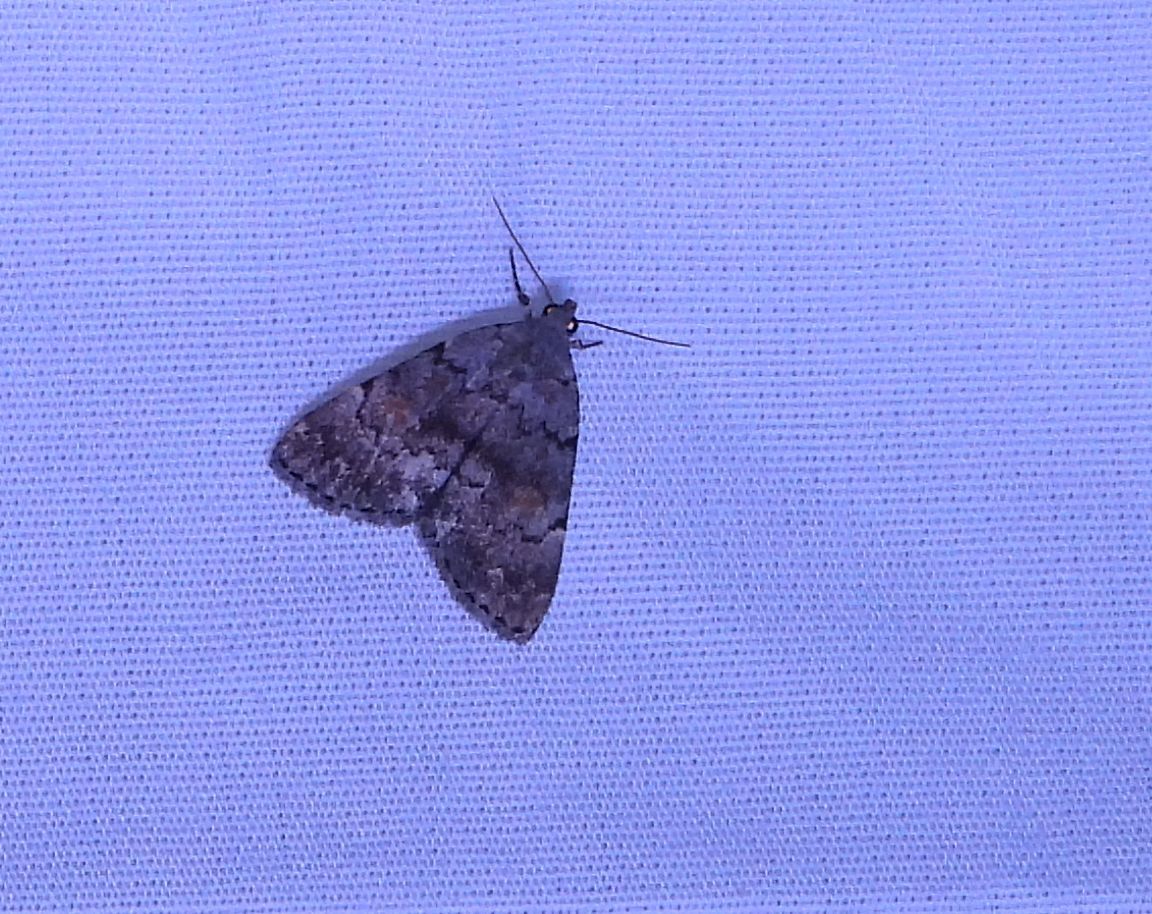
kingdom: Animalia
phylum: Arthropoda
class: Insecta
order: Lepidoptera
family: Erebidae
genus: Idia
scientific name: Idia aemula
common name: Common idia moth
